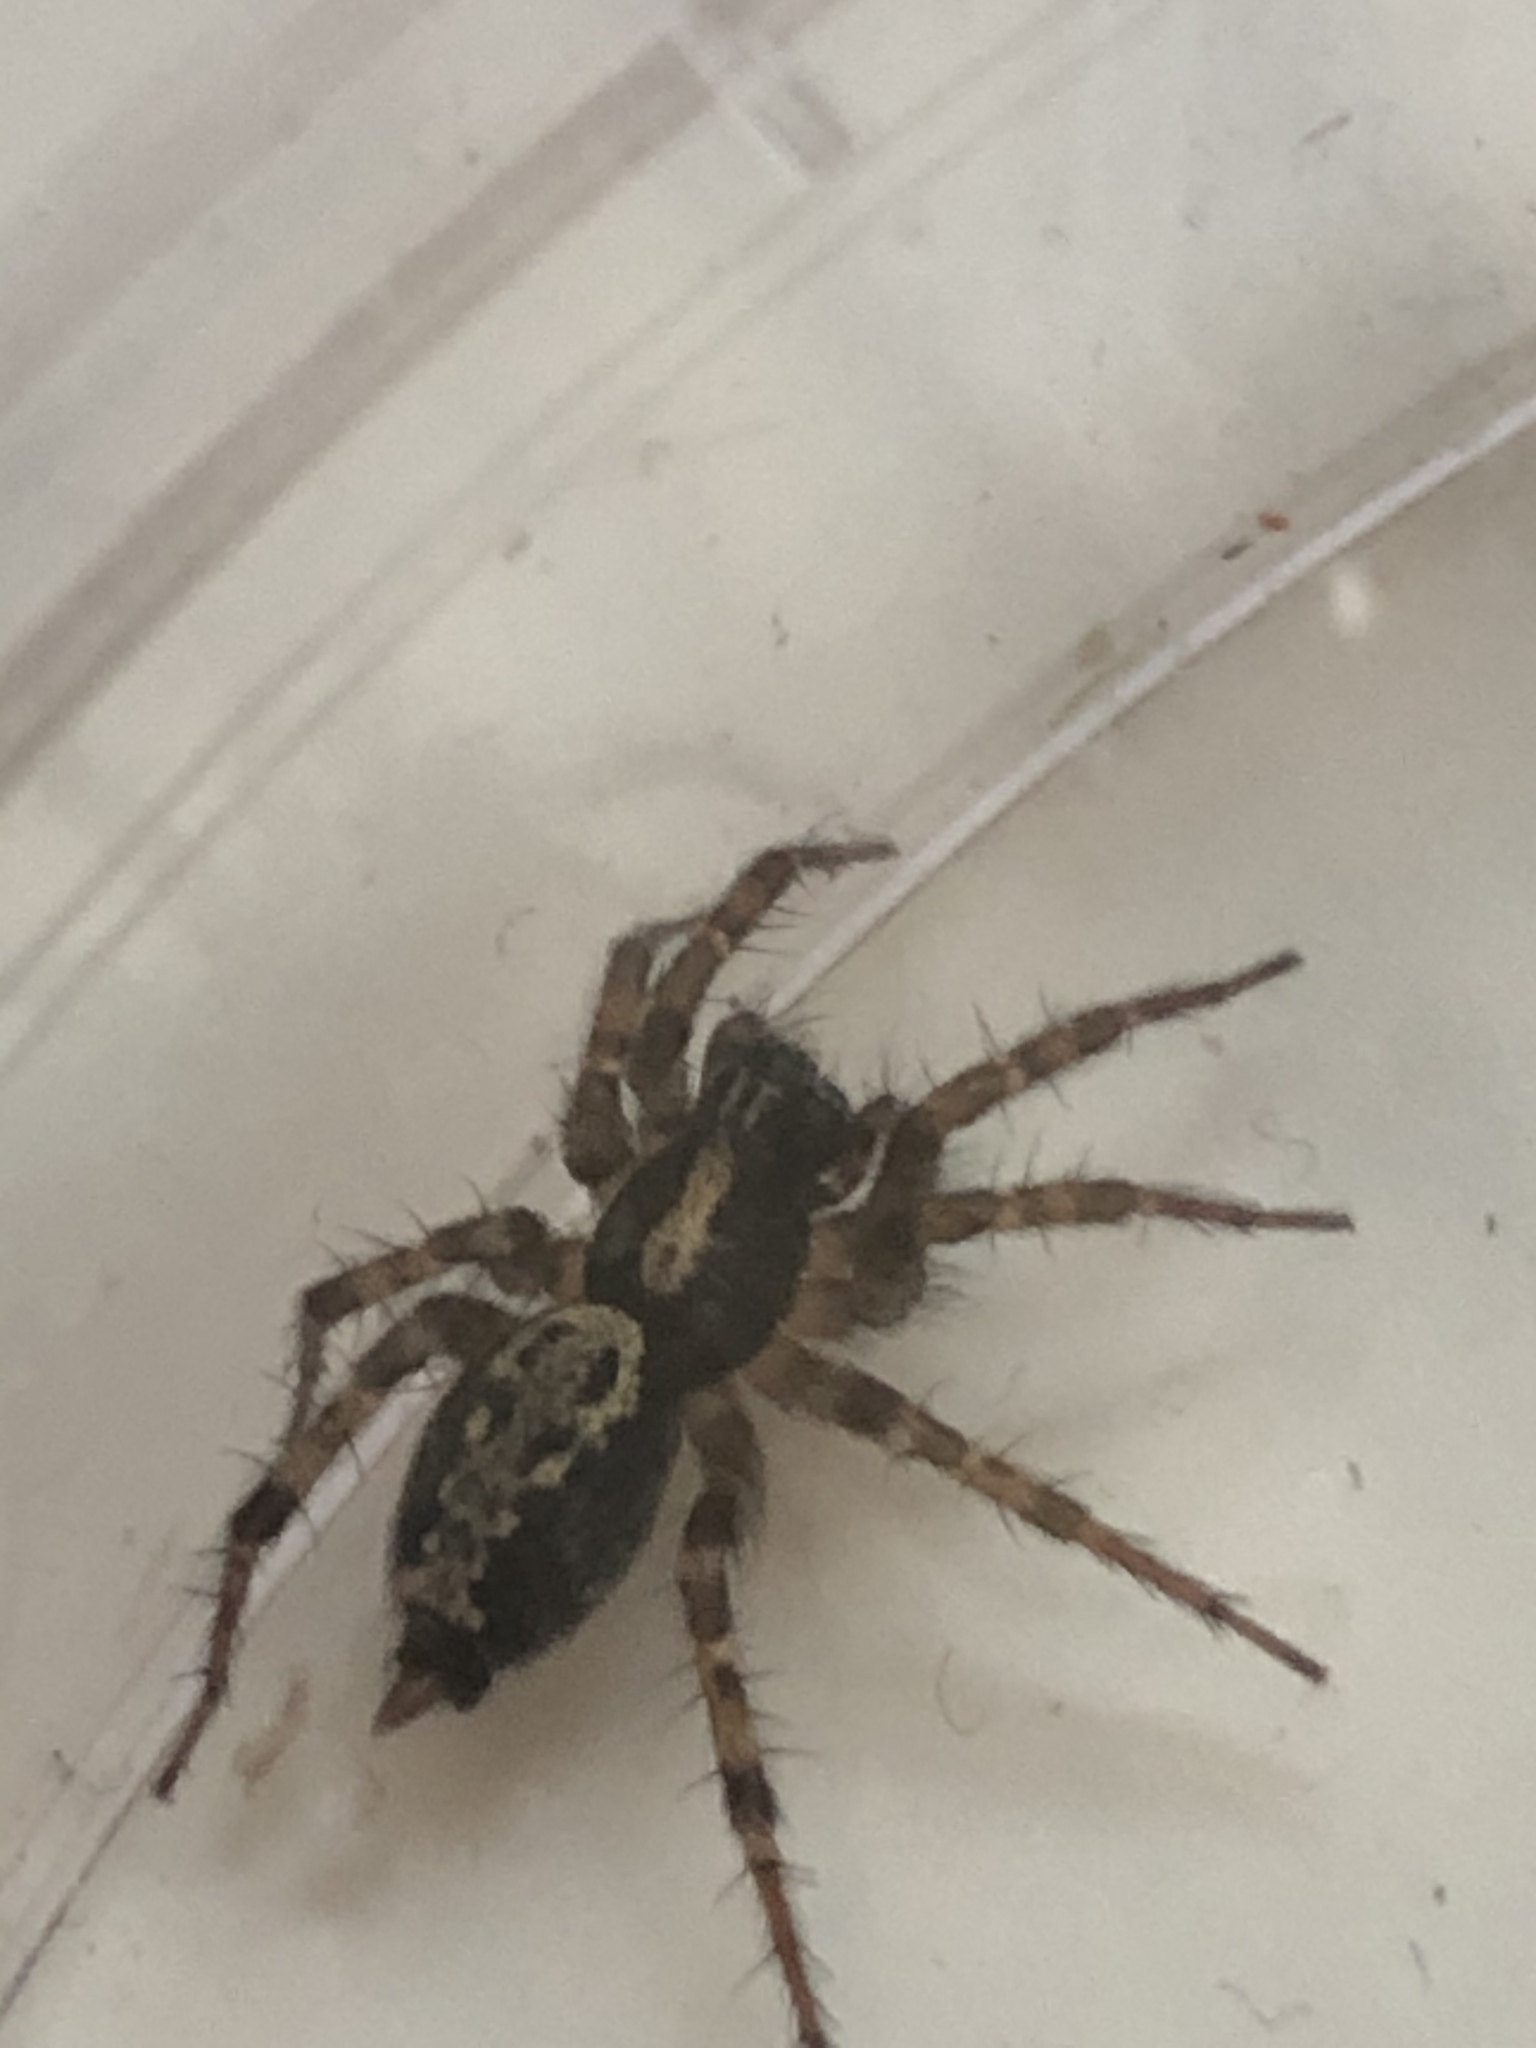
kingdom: Animalia
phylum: Arthropoda
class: Arachnida
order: Araneae
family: Agelenidae
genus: Textrix
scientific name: Textrix denticulata
